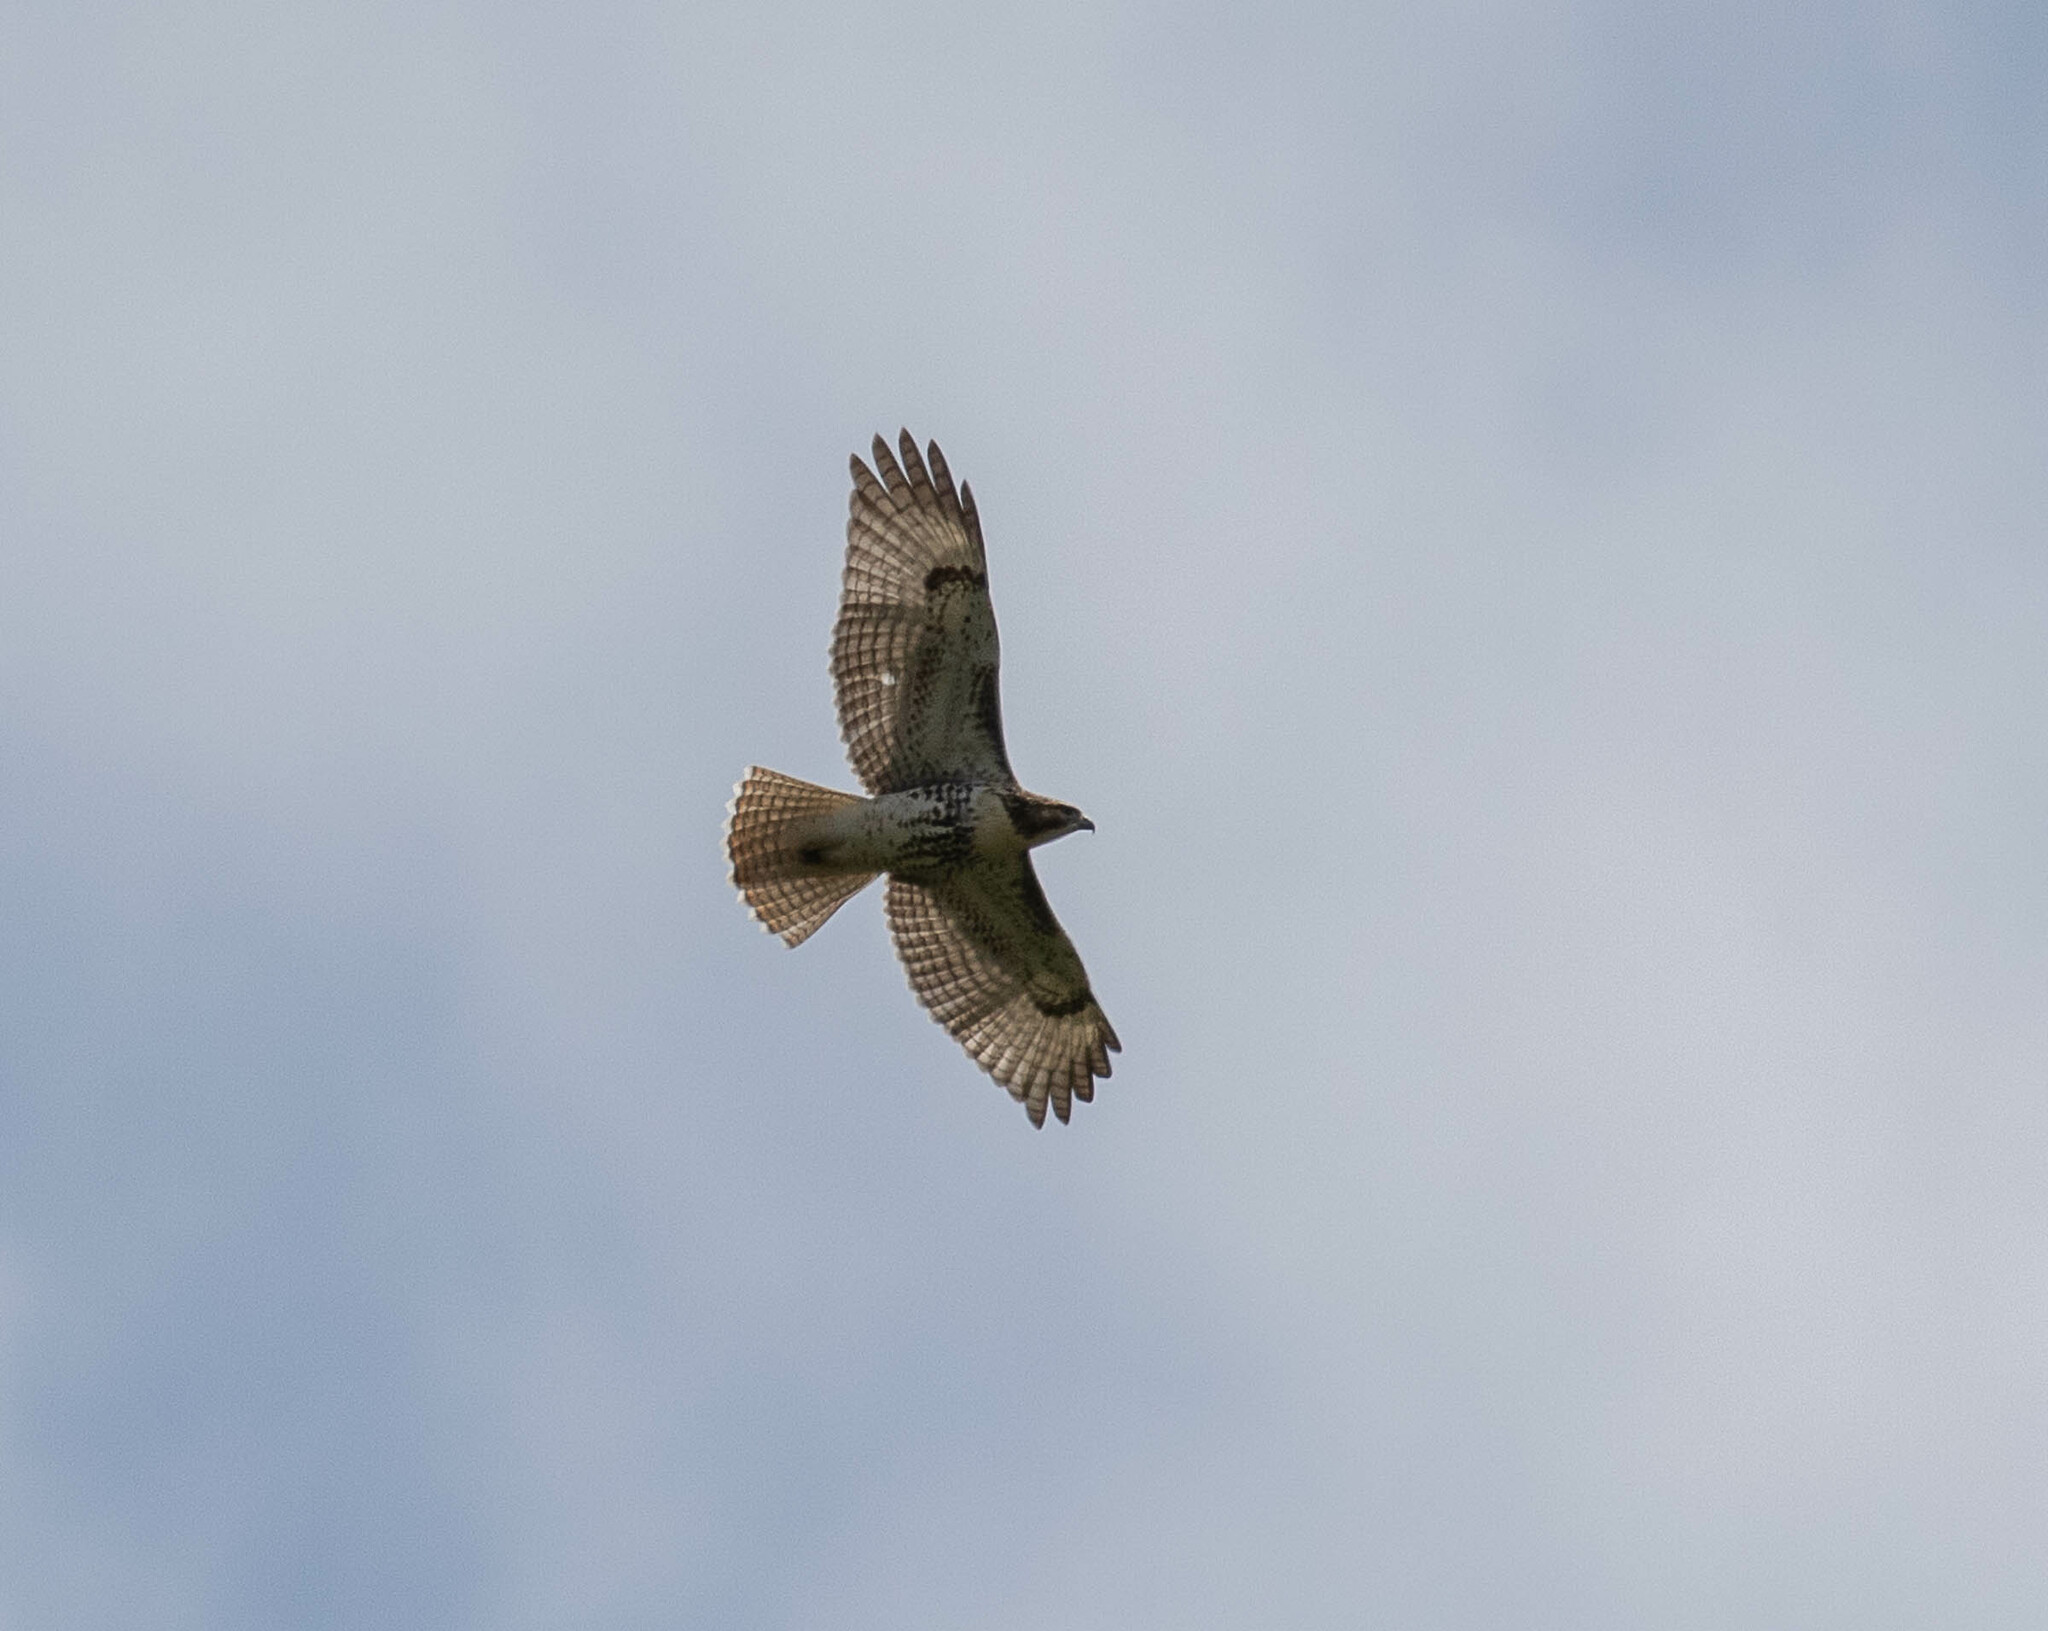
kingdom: Animalia
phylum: Chordata
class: Aves
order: Accipitriformes
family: Accipitridae
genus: Buteo
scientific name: Buteo jamaicensis
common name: Red-tailed hawk
